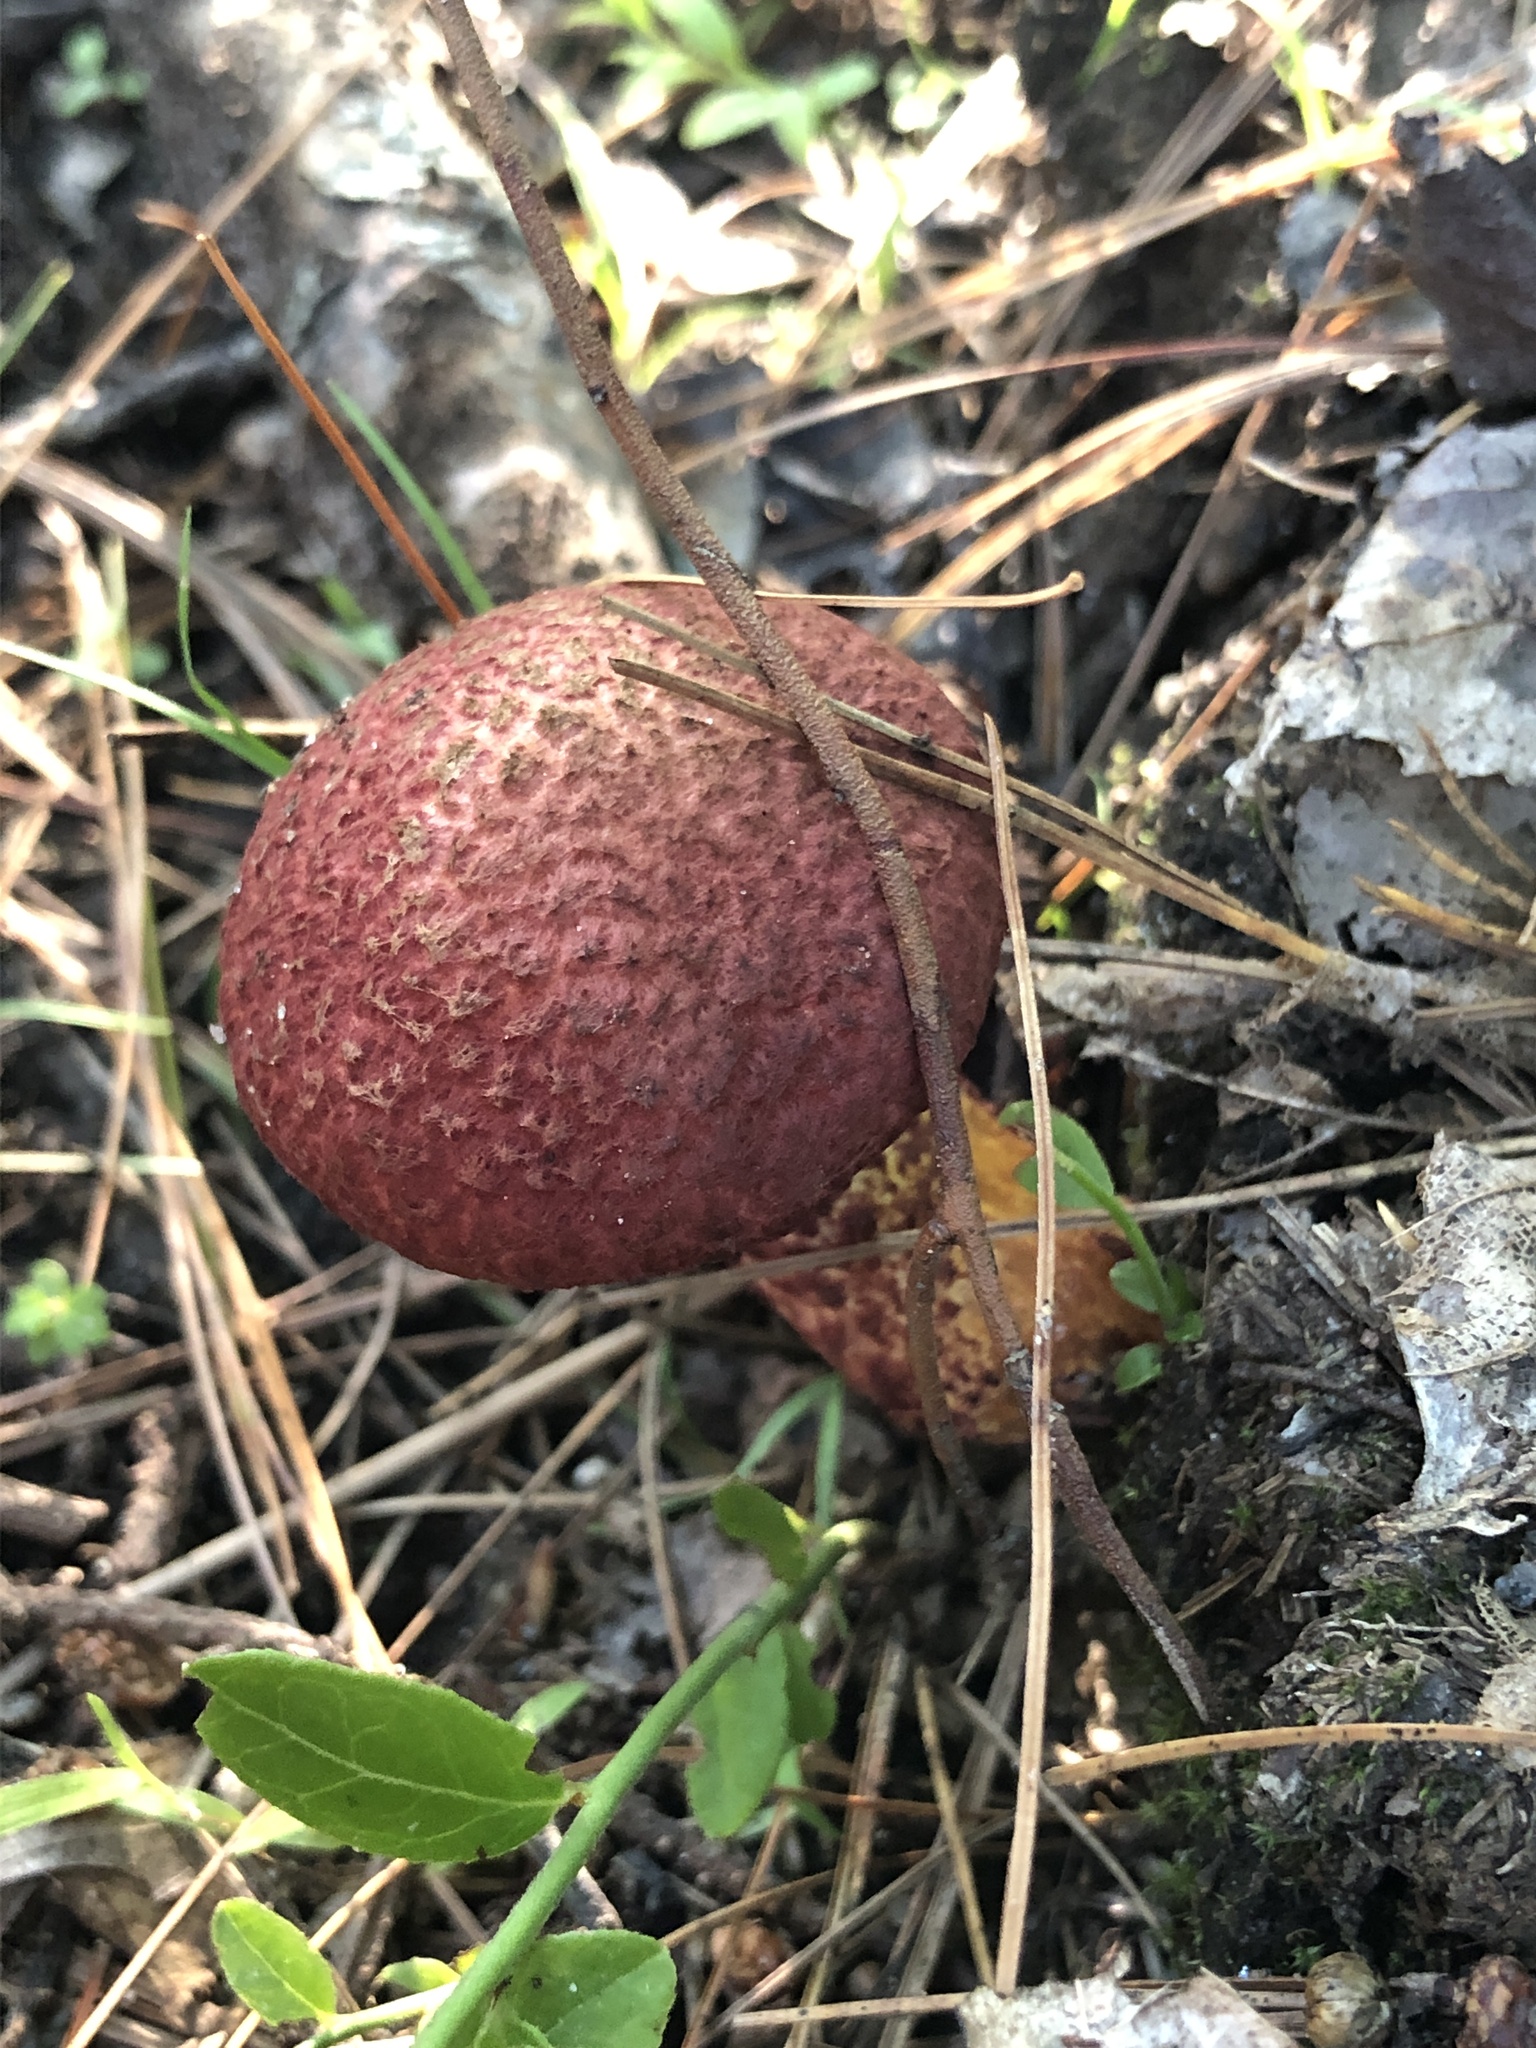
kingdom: Fungi
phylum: Basidiomycota
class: Agaricomycetes
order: Boletales
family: Suillaceae
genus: Suillus
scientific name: Suillus spraguei
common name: Painted suillus
